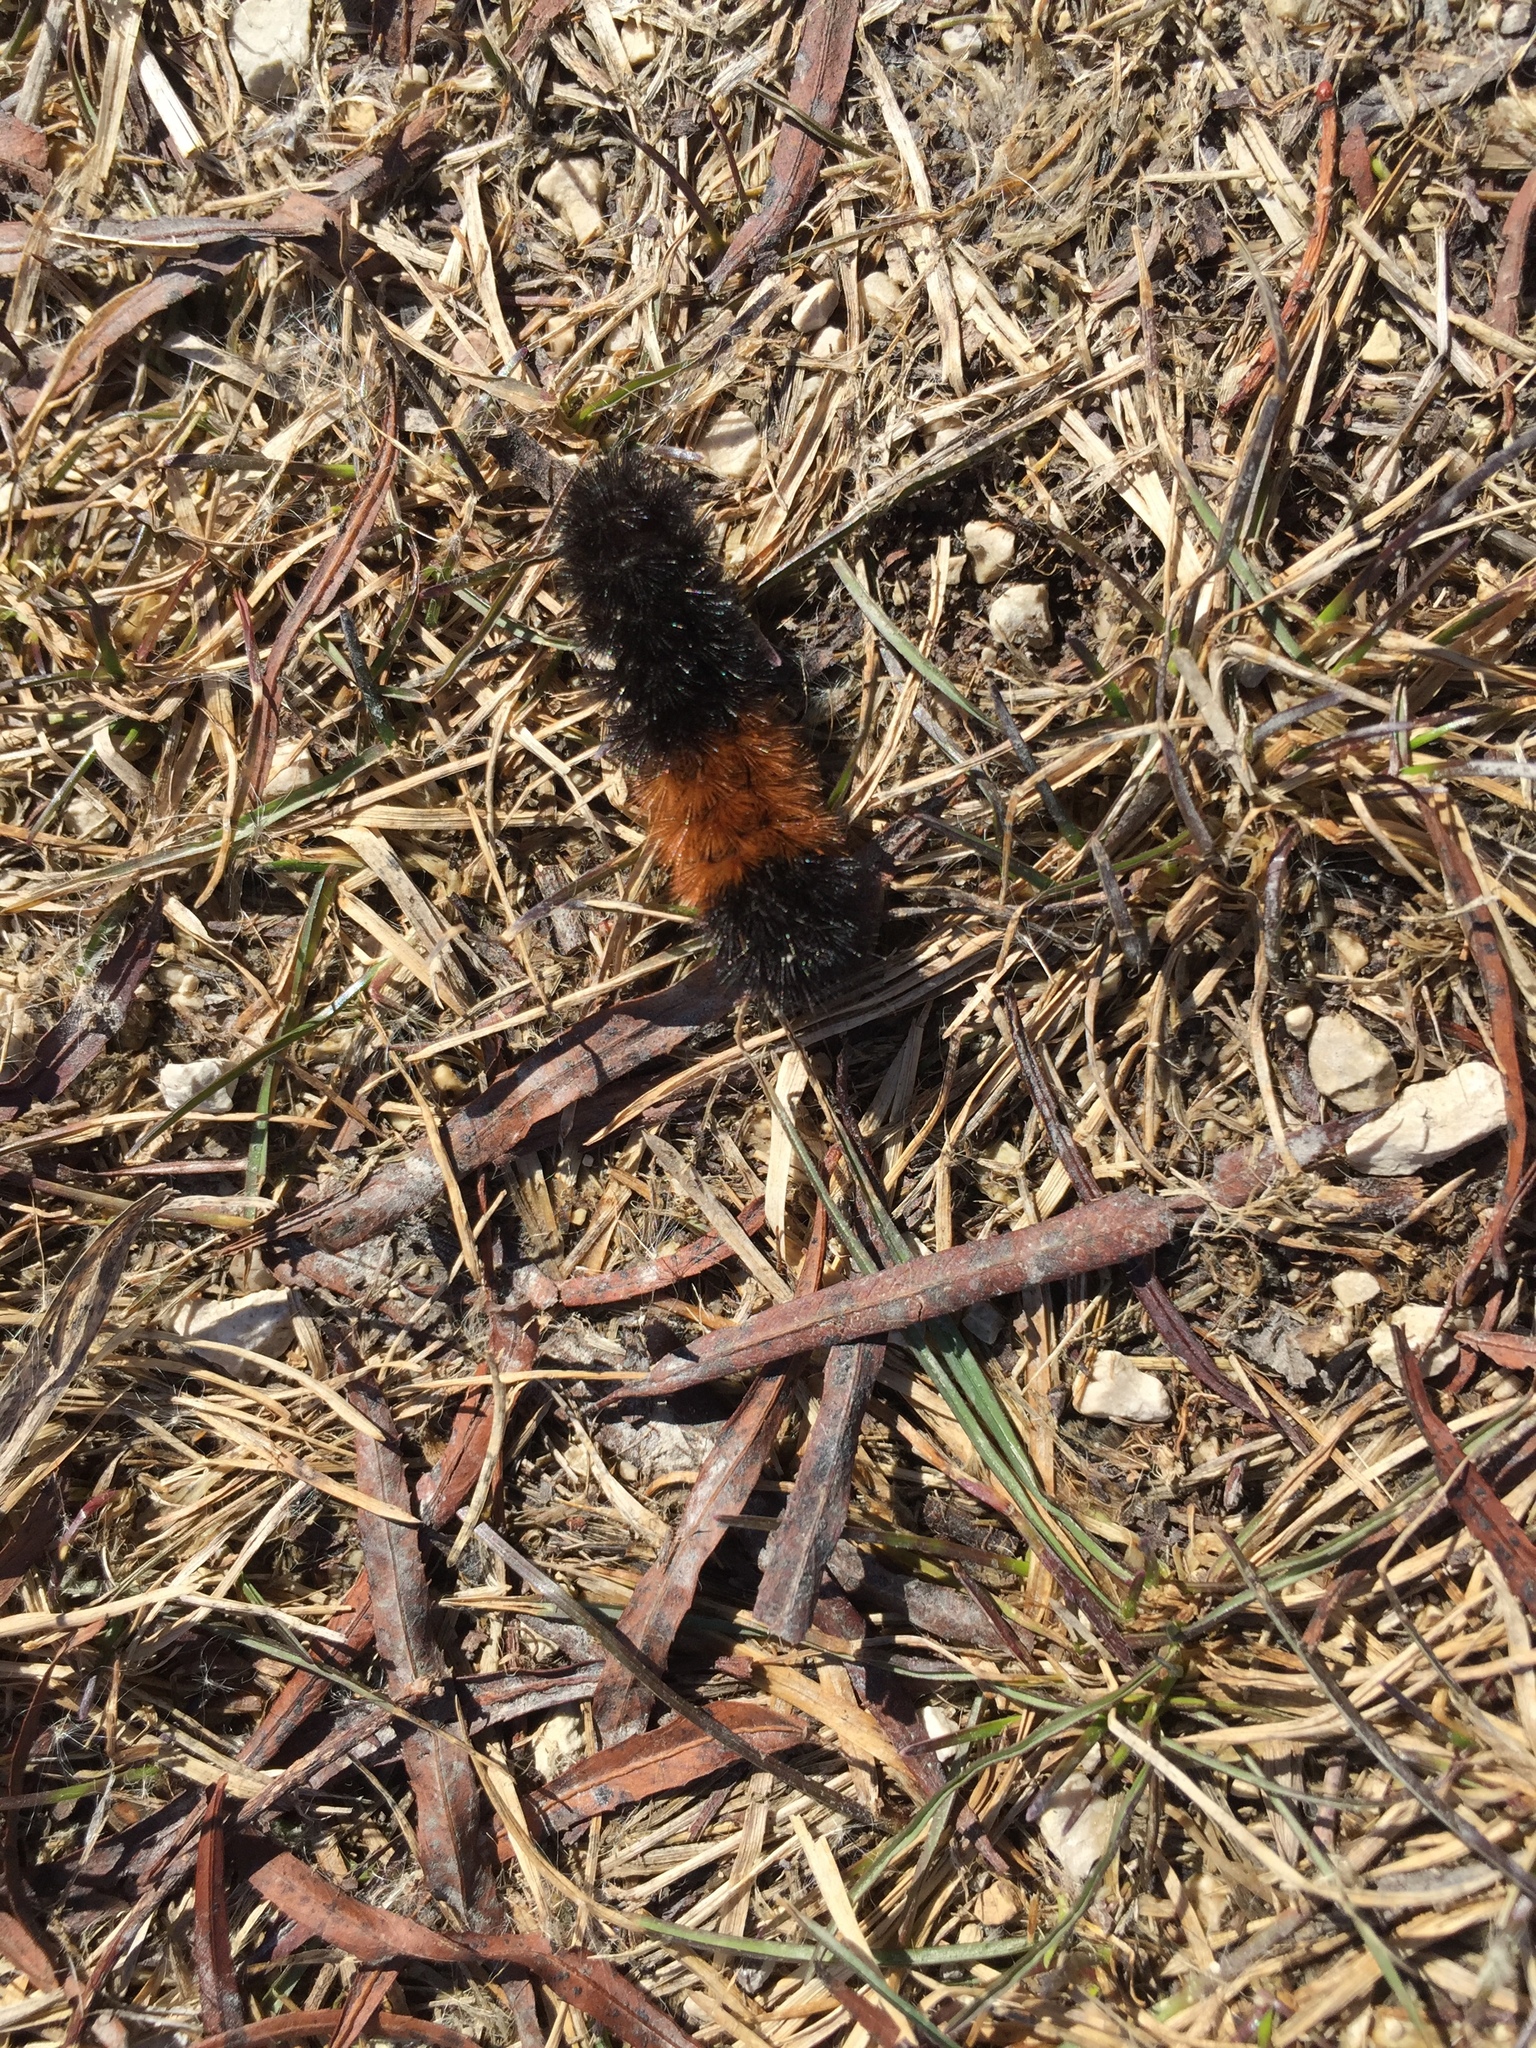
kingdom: Animalia
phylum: Arthropoda
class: Insecta
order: Lepidoptera
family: Erebidae
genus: Pyrrharctia
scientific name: Pyrrharctia isabella
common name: Isabella tiger moth
